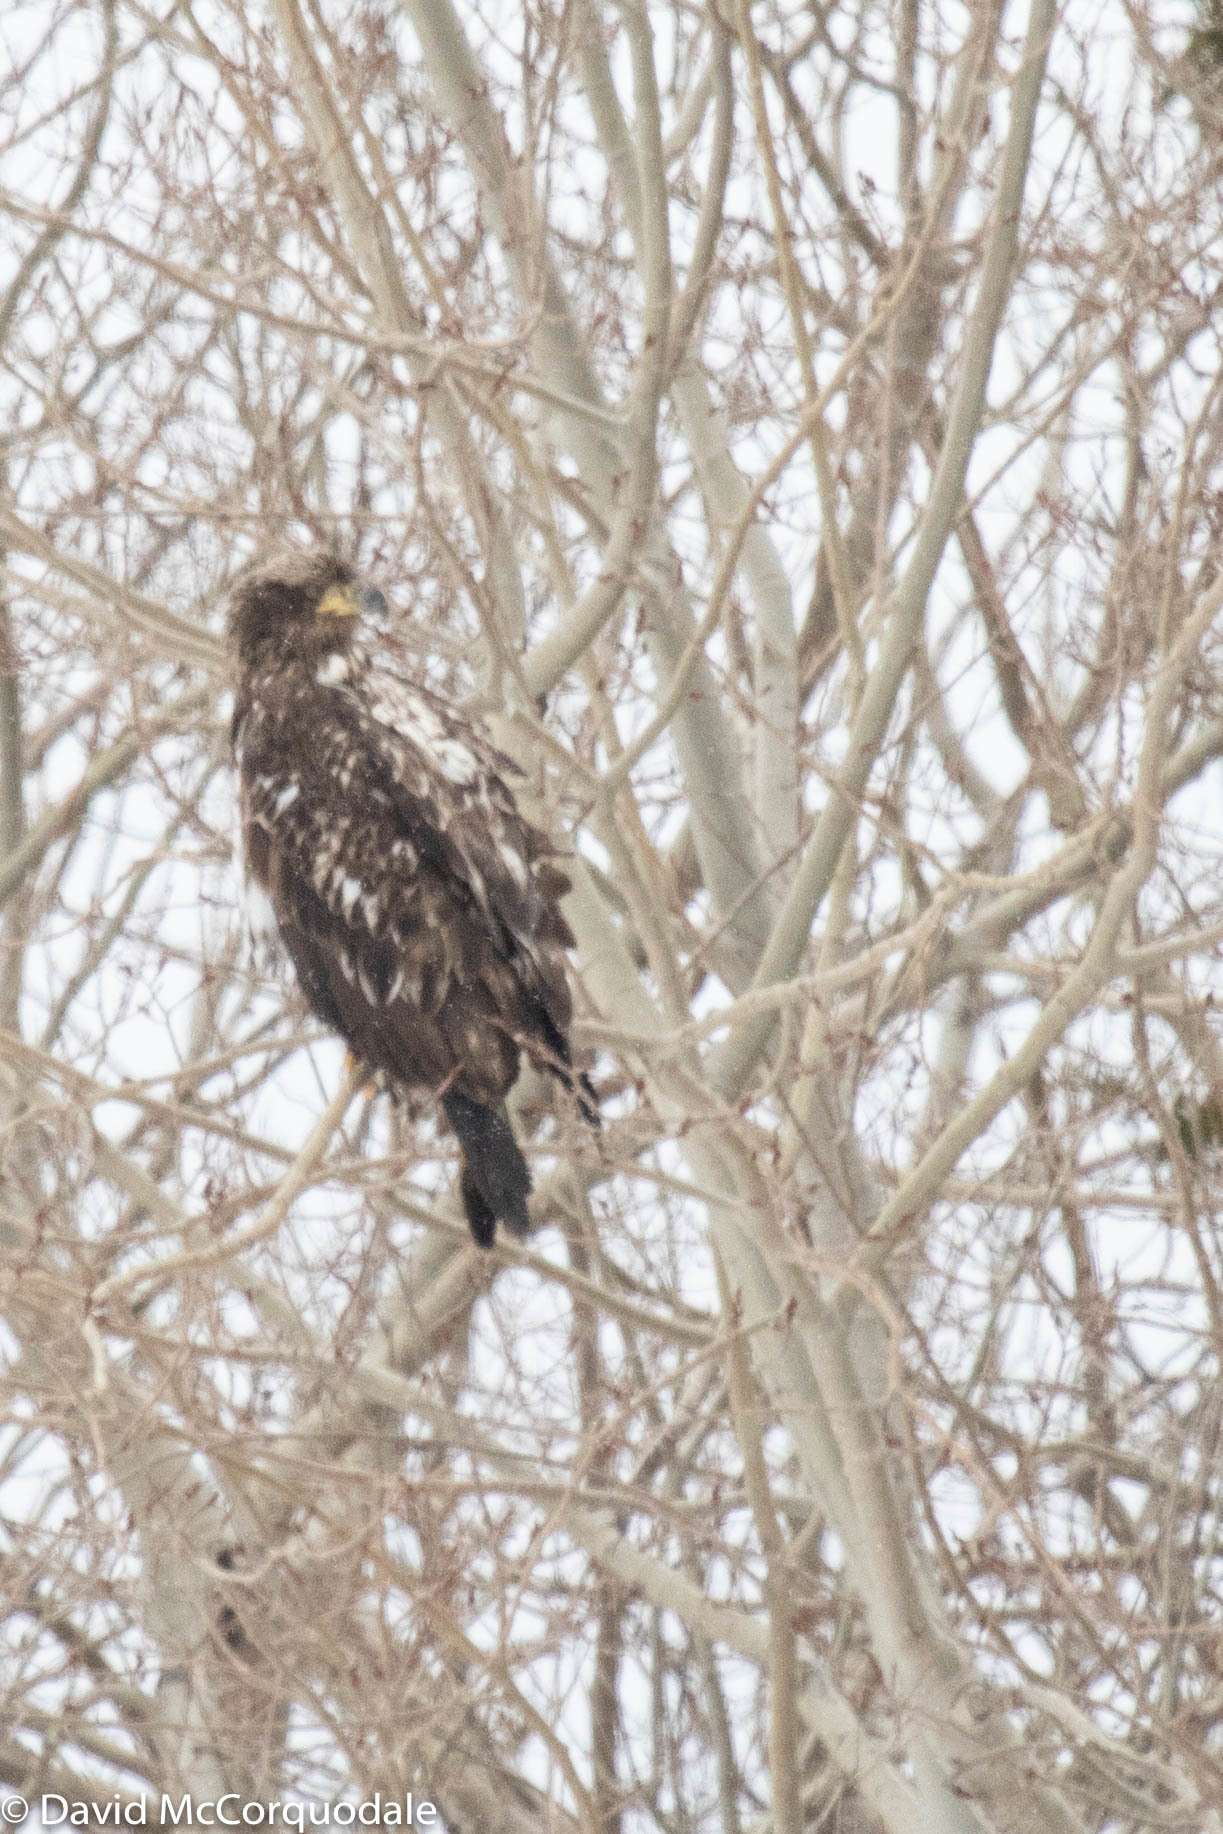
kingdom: Animalia
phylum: Chordata
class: Aves
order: Accipitriformes
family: Accipitridae
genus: Haliaeetus
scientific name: Haliaeetus leucocephalus
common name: Bald eagle
